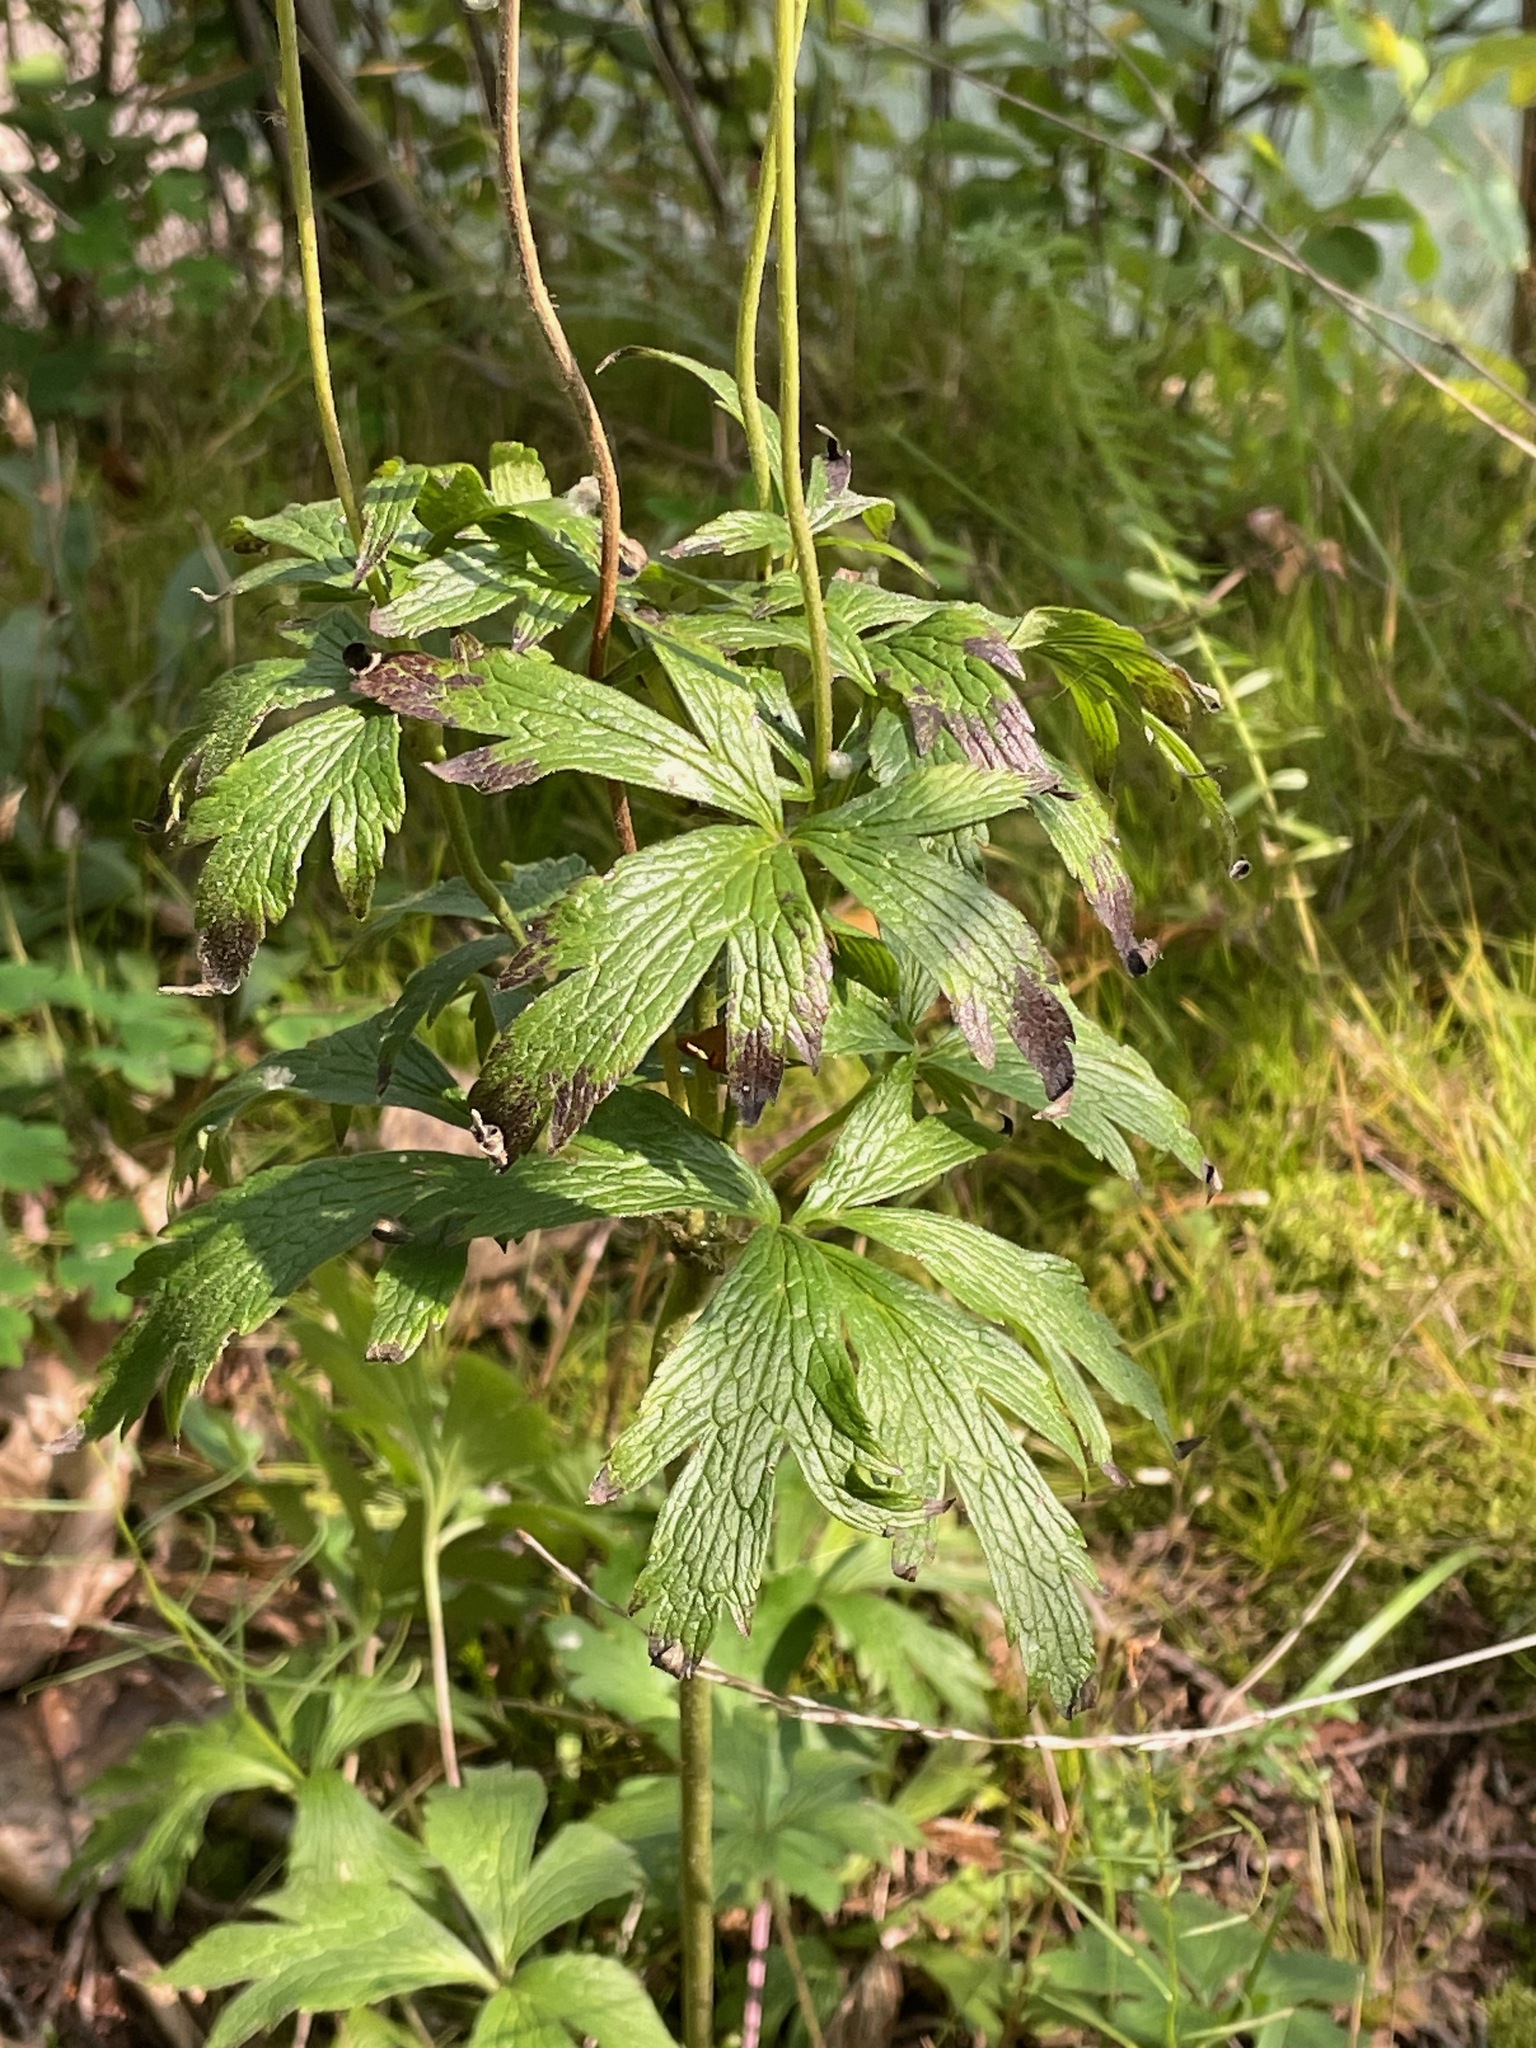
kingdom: Plantae
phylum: Tracheophyta
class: Magnoliopsida
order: Ranunculales
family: Ranunculaceae
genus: Anemone
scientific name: Anemone virginiana
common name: Tall anemone
